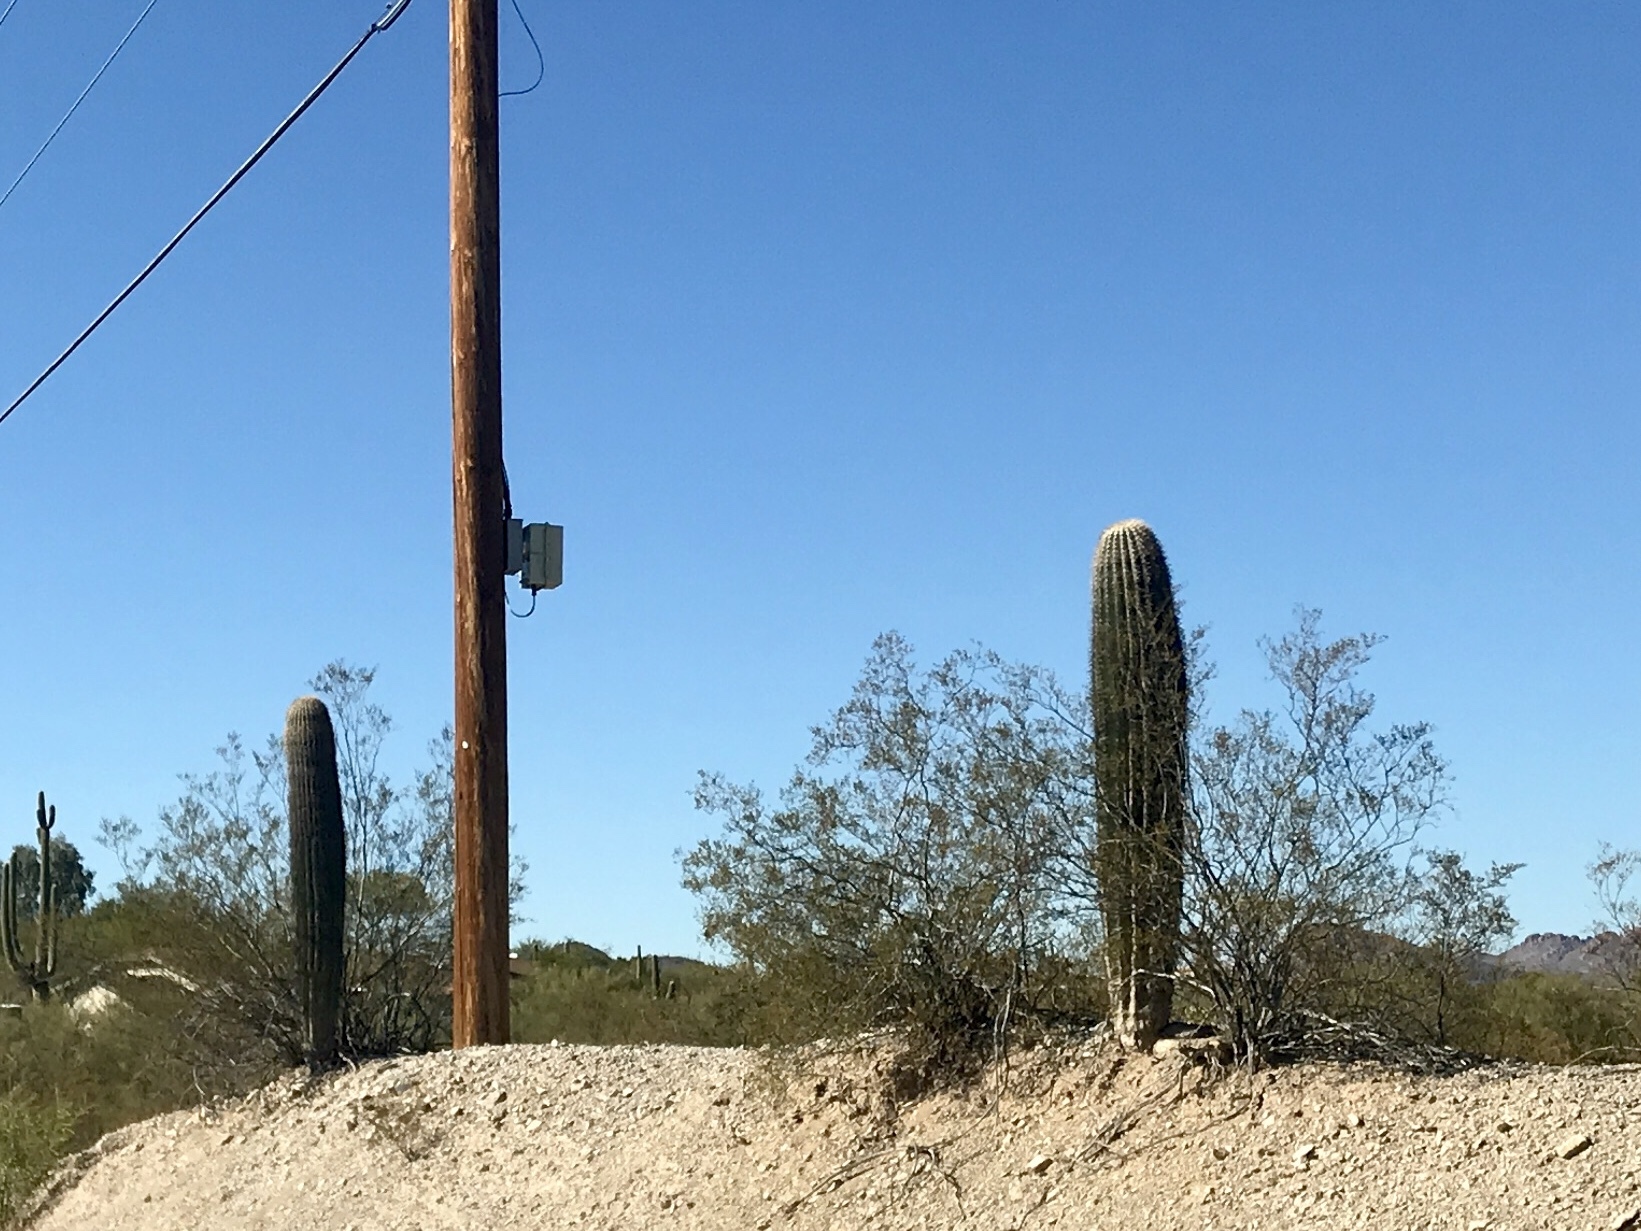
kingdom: Plantae
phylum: Tracheophyta
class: Magnoliopsida
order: Caryophyllales
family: Cactaceae
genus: Carnegiea
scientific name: Carnegiea gigantea
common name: Saguaro
